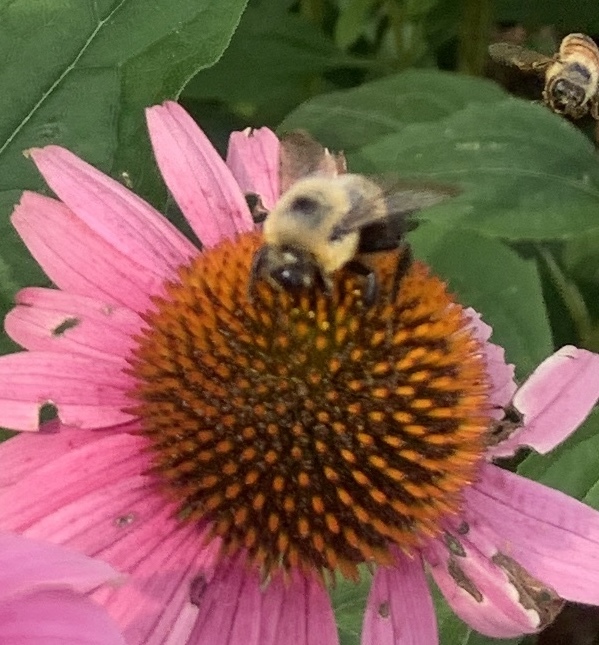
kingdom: Animalia
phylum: Arthropoda
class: Insecta
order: Hymenoptera
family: Apidae
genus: Bombus
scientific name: Bombus griseocollis
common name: Brown-belted bumble bee
